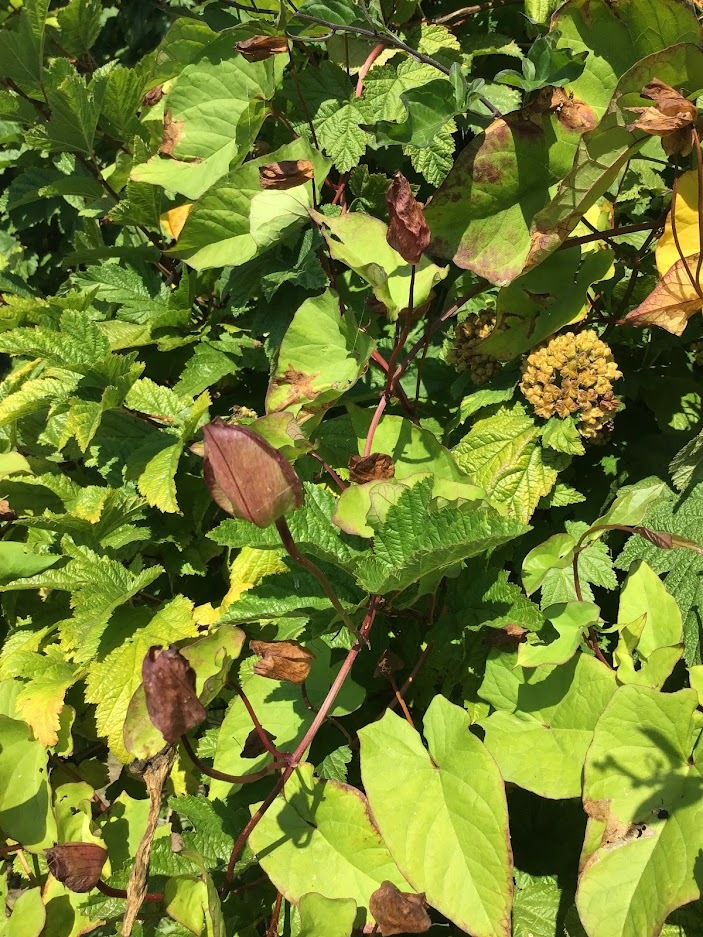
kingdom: Plantae
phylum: Tracheophyta
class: Magnoliopsida
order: Rosales
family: Rosaceae
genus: Physocarpus
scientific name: Physocarpus capitatus
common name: Pacific ninebark
